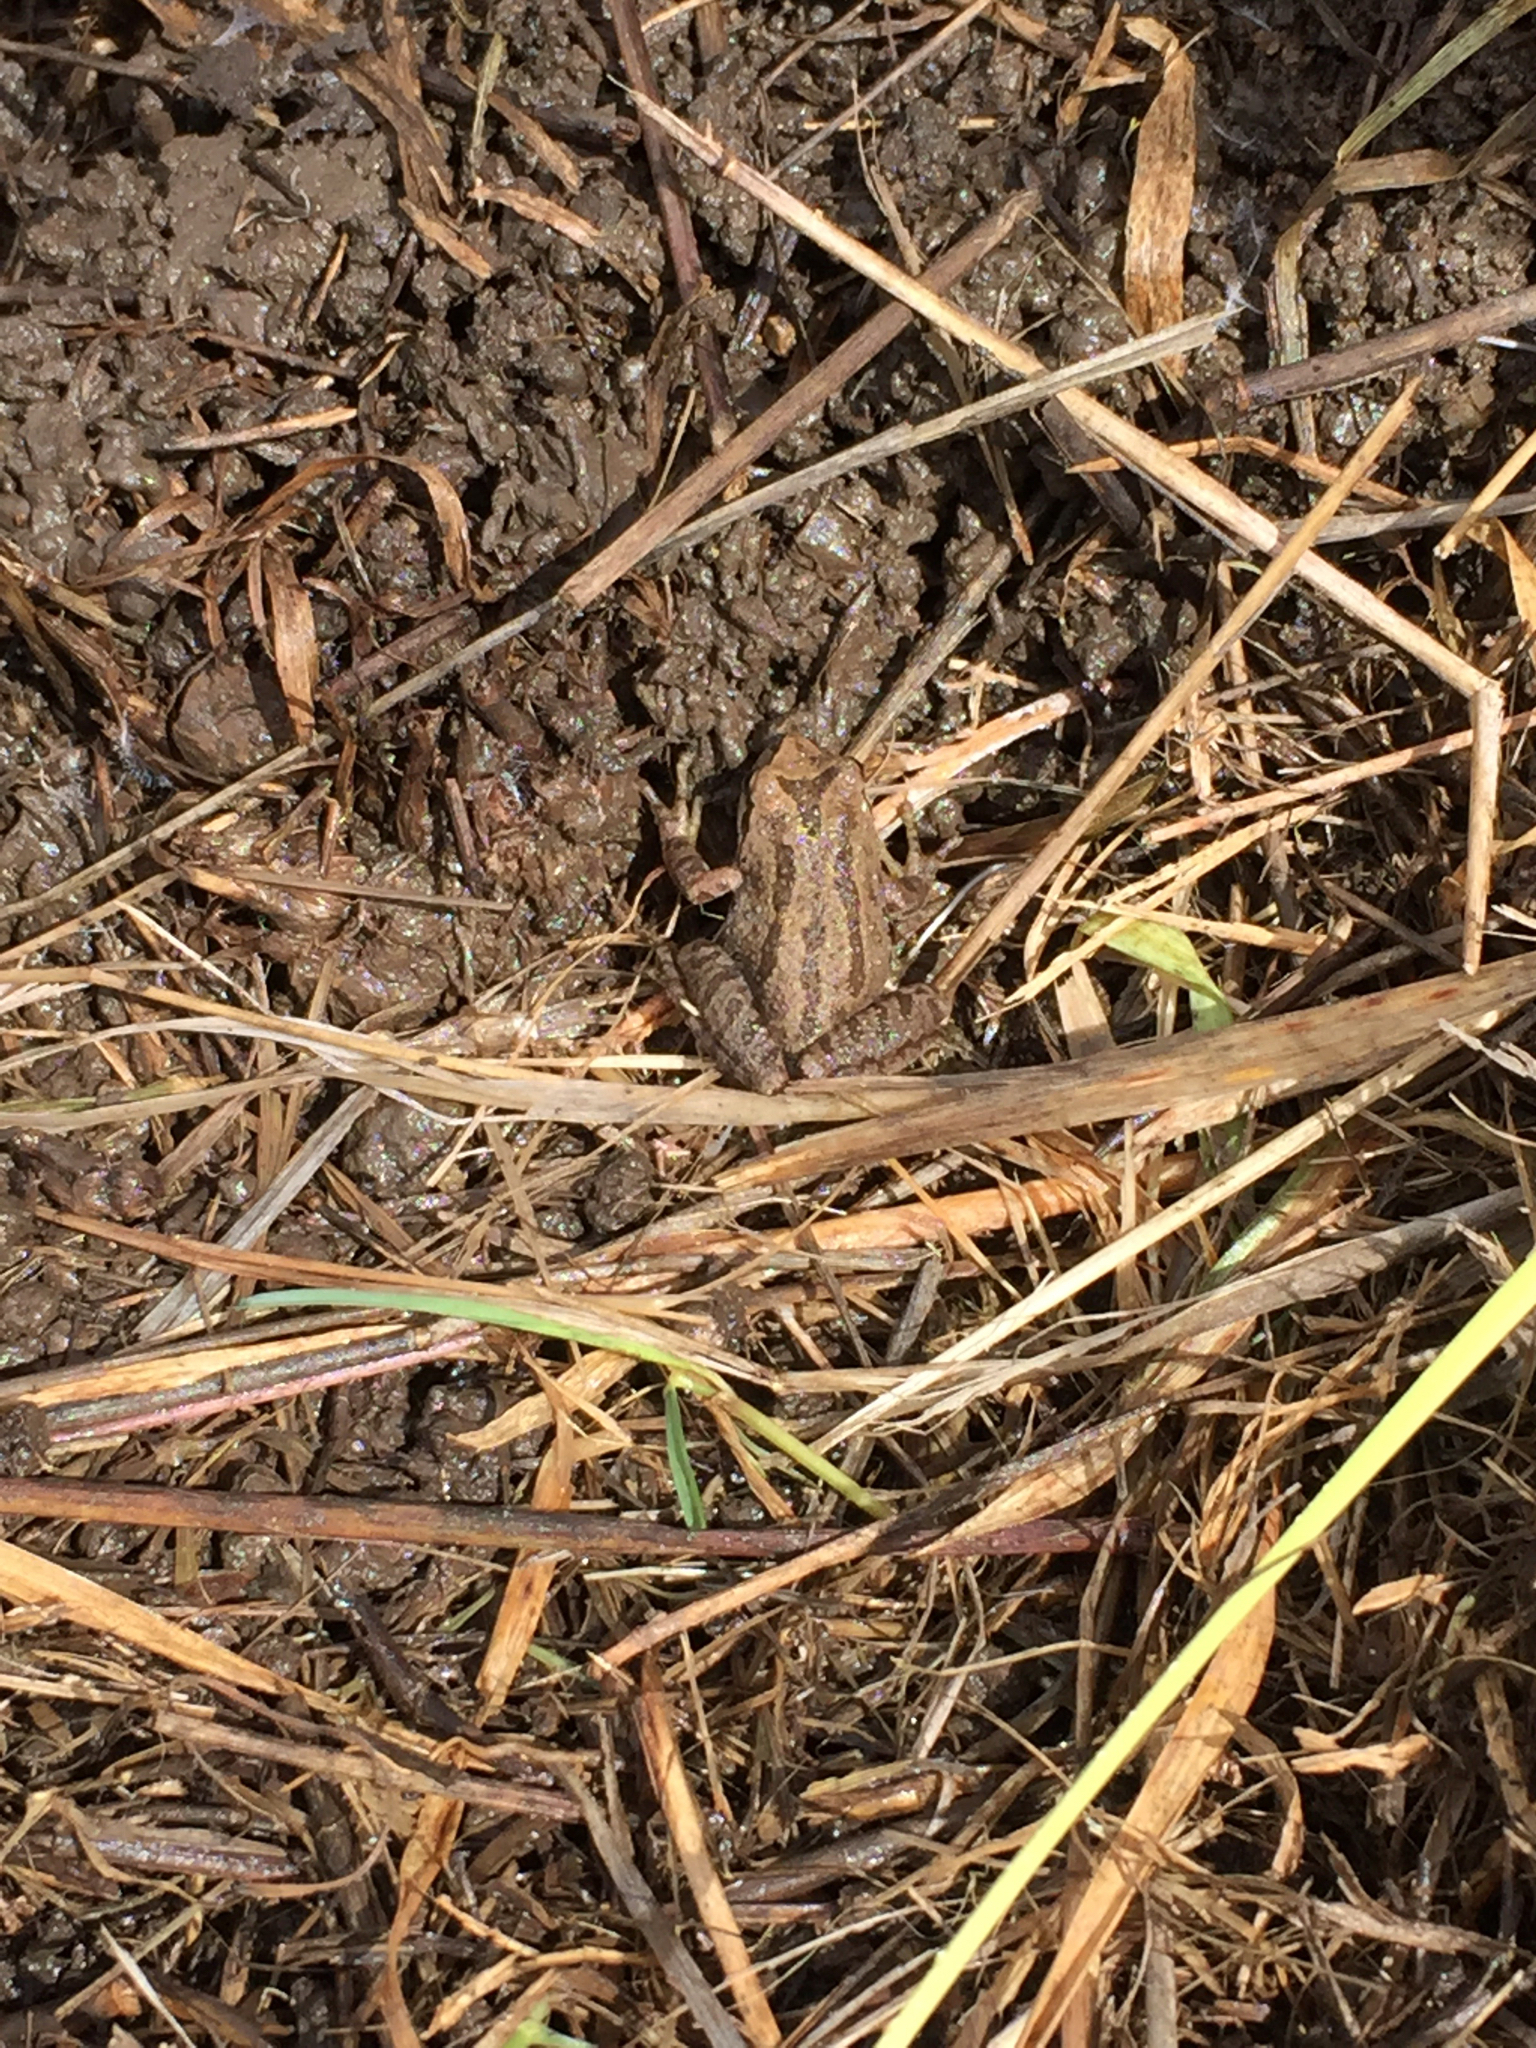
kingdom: Animalia
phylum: Chordata
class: Amphibia
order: Anura
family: Hylidae
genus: Pseudacris
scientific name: Pseudacris regilla
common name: Pacific chorus frog
